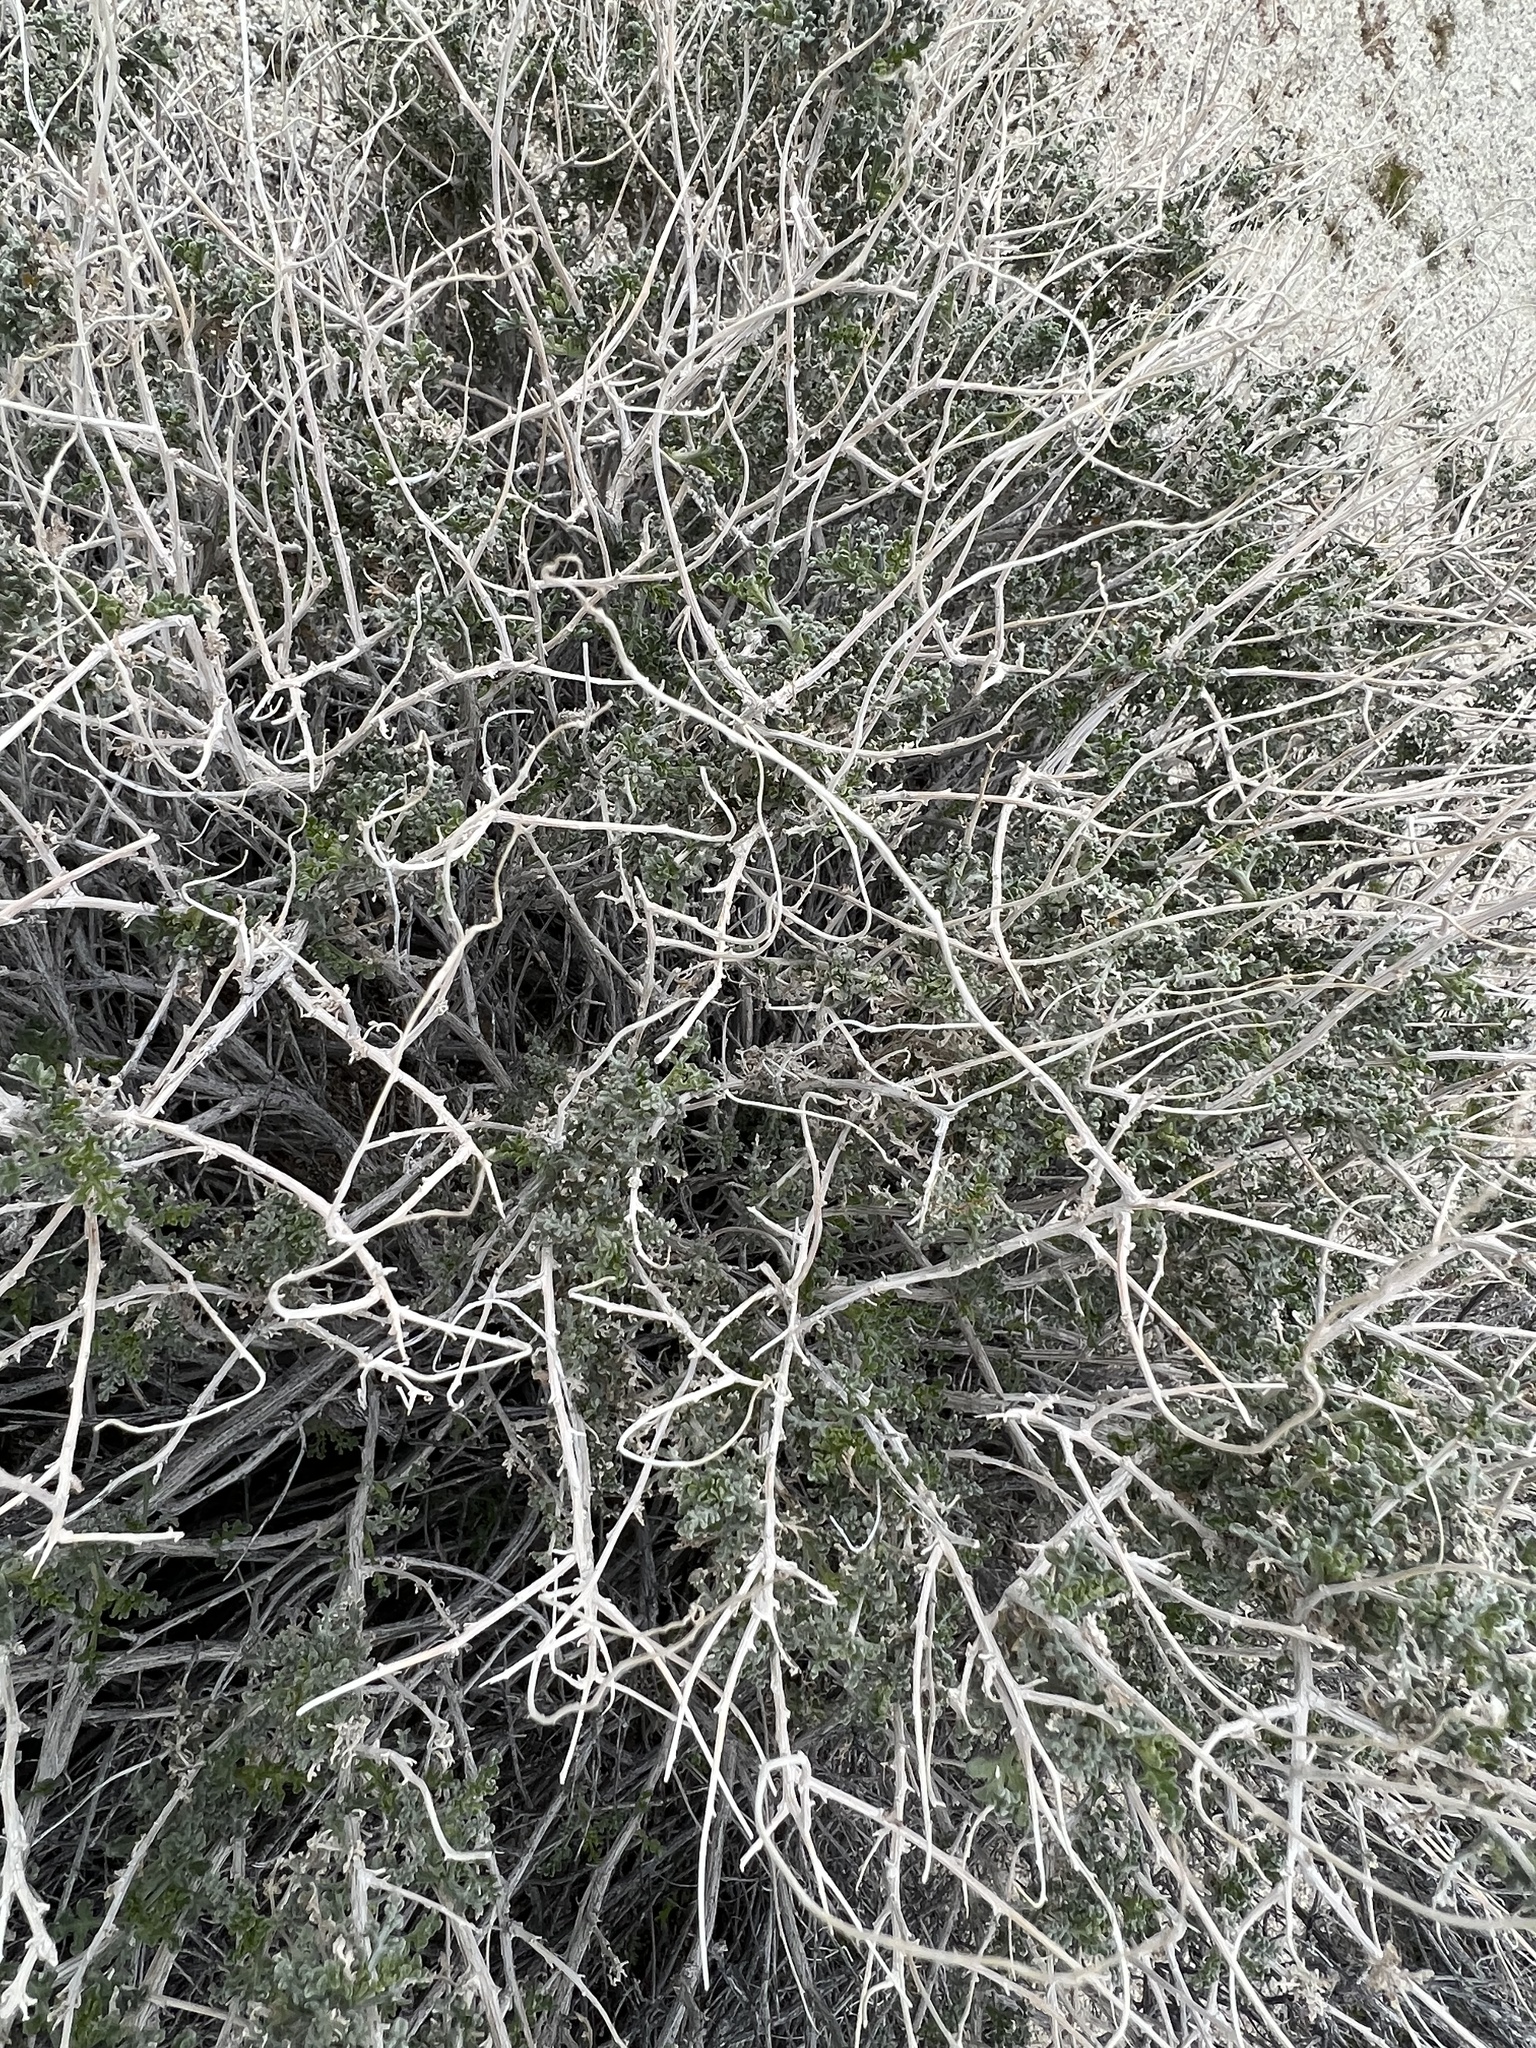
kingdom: Plantae
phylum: Tracheophyta
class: Magnoliopsida
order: Asterales
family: Asteraceae
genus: Ambrosia
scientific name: Ambrosia dumosa
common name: Bur-sage
